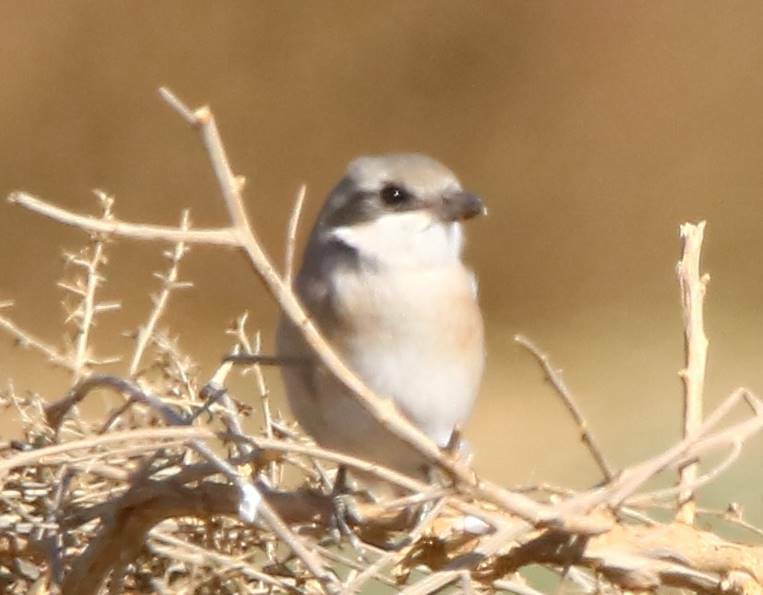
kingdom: Animalia
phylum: Chordata
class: Aves
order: Passeriformes
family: Laniidae
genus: Lanius
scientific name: Lanius excubitor
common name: Great grey shrike
